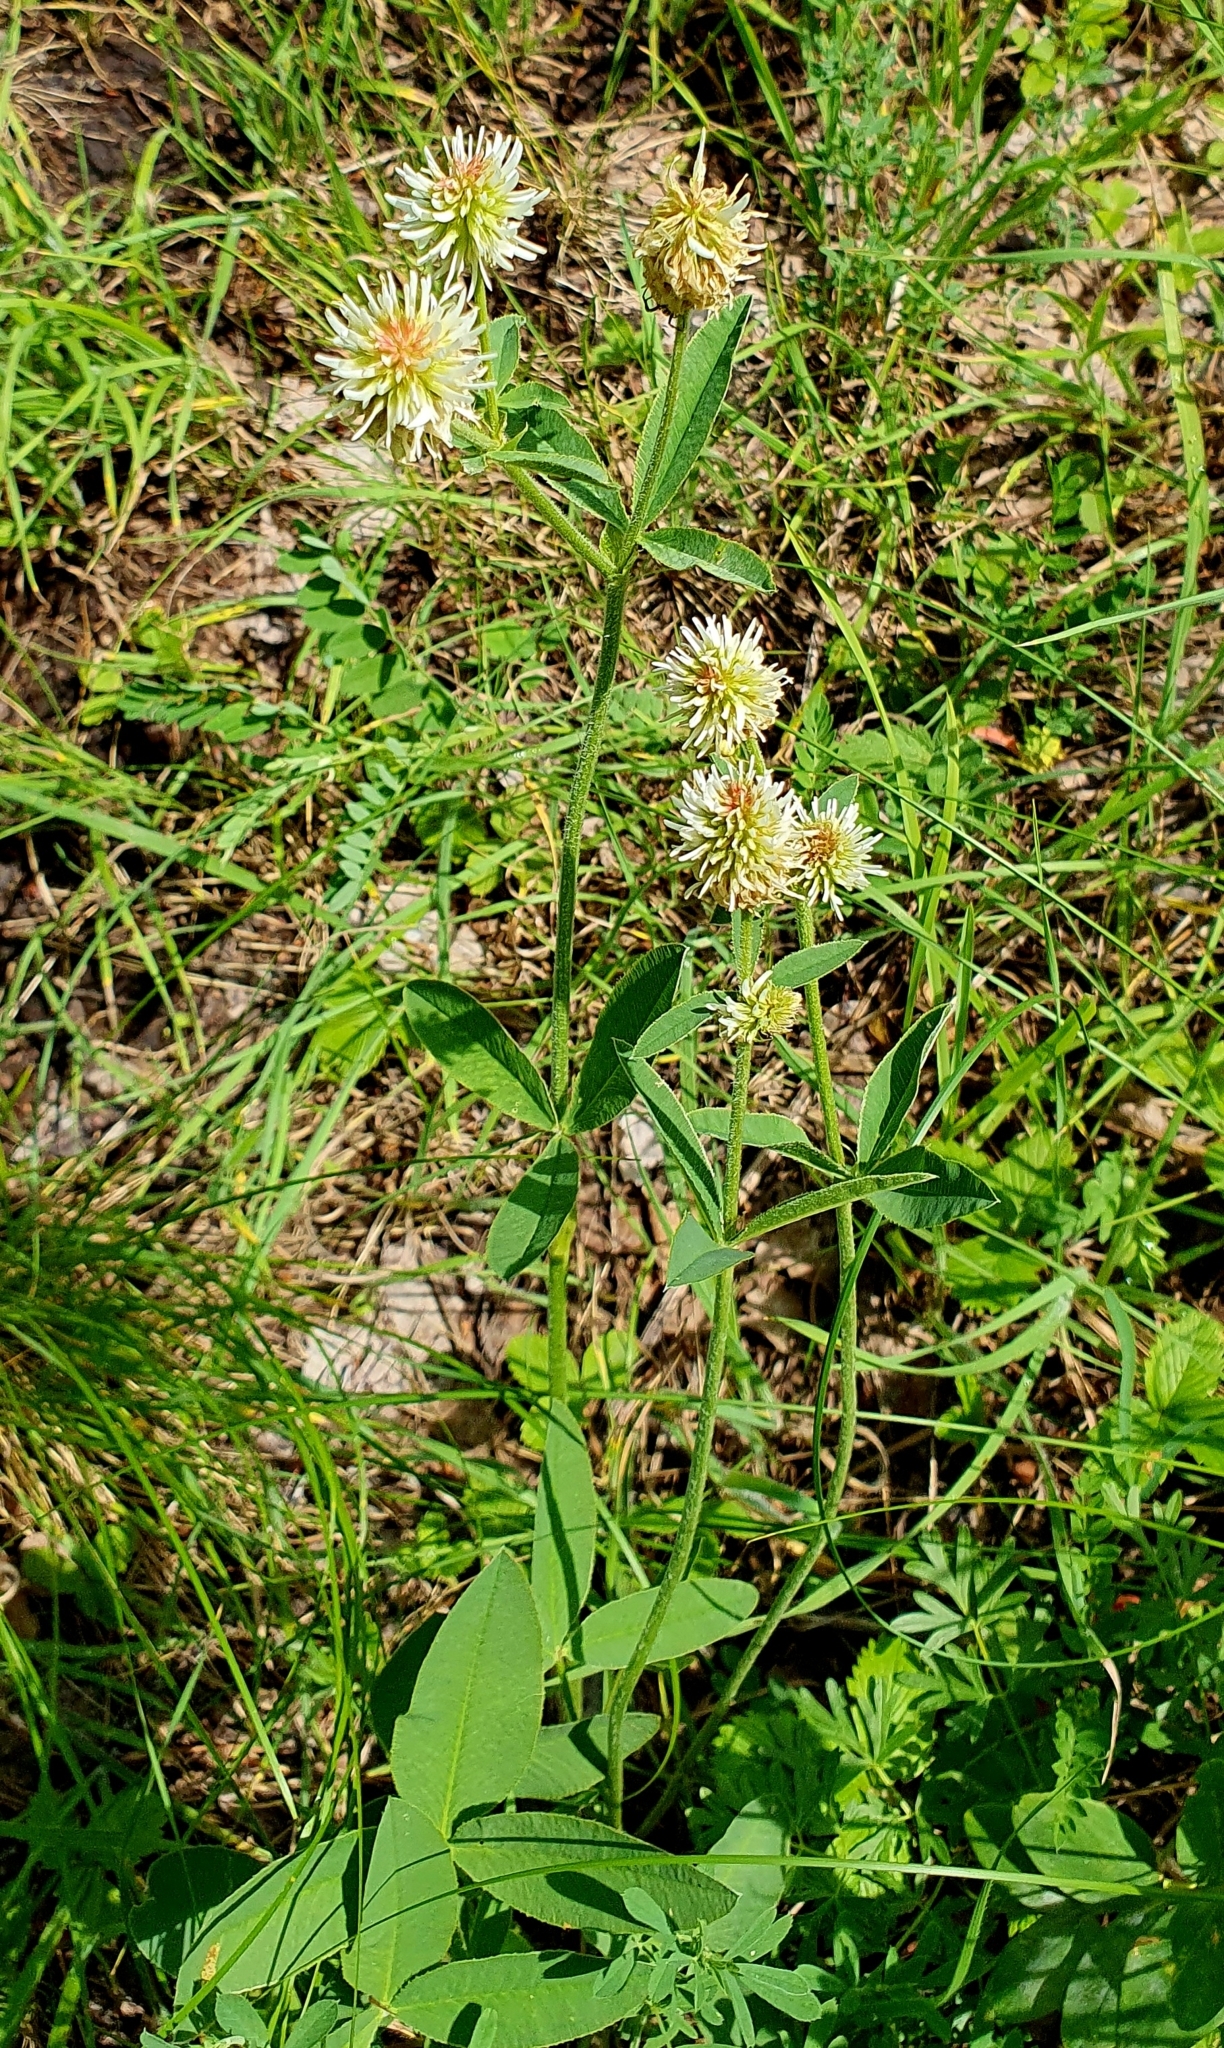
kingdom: Plantae
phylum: Tracheophyta
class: Magnoliopsida
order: Fabales
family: Fabaceae
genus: Trifolium
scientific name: Trifolium montanum
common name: Mountain clover
